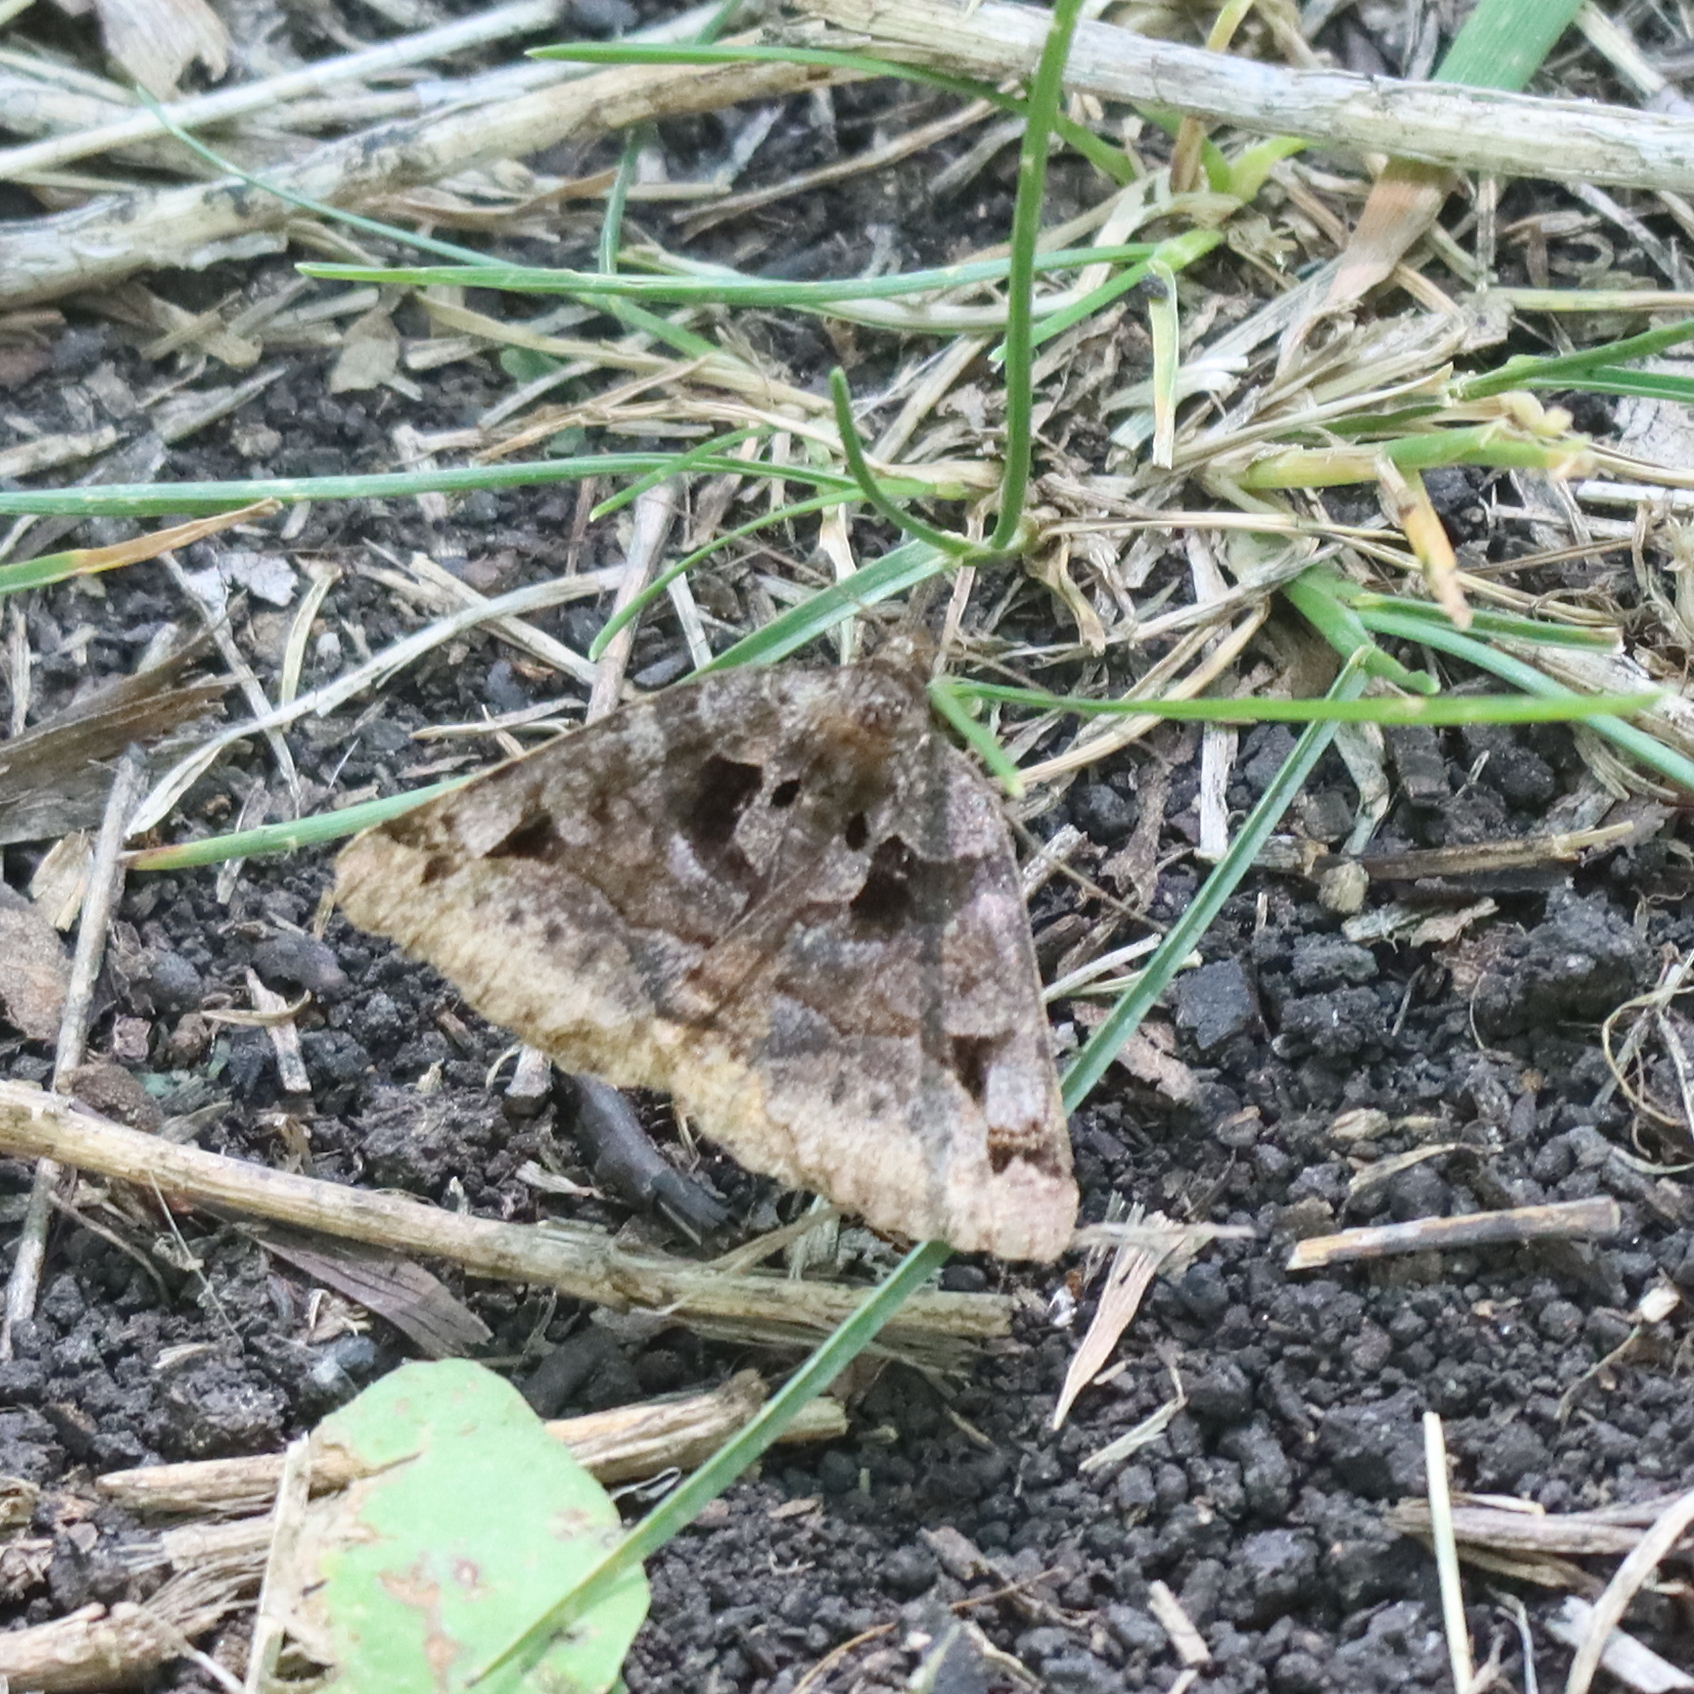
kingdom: Animalia
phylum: Arthropoda
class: Insecta
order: Lepidoptera
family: Erebidae
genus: Euclidia
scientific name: Euclidia cuspidea
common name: Toothed somberwing
